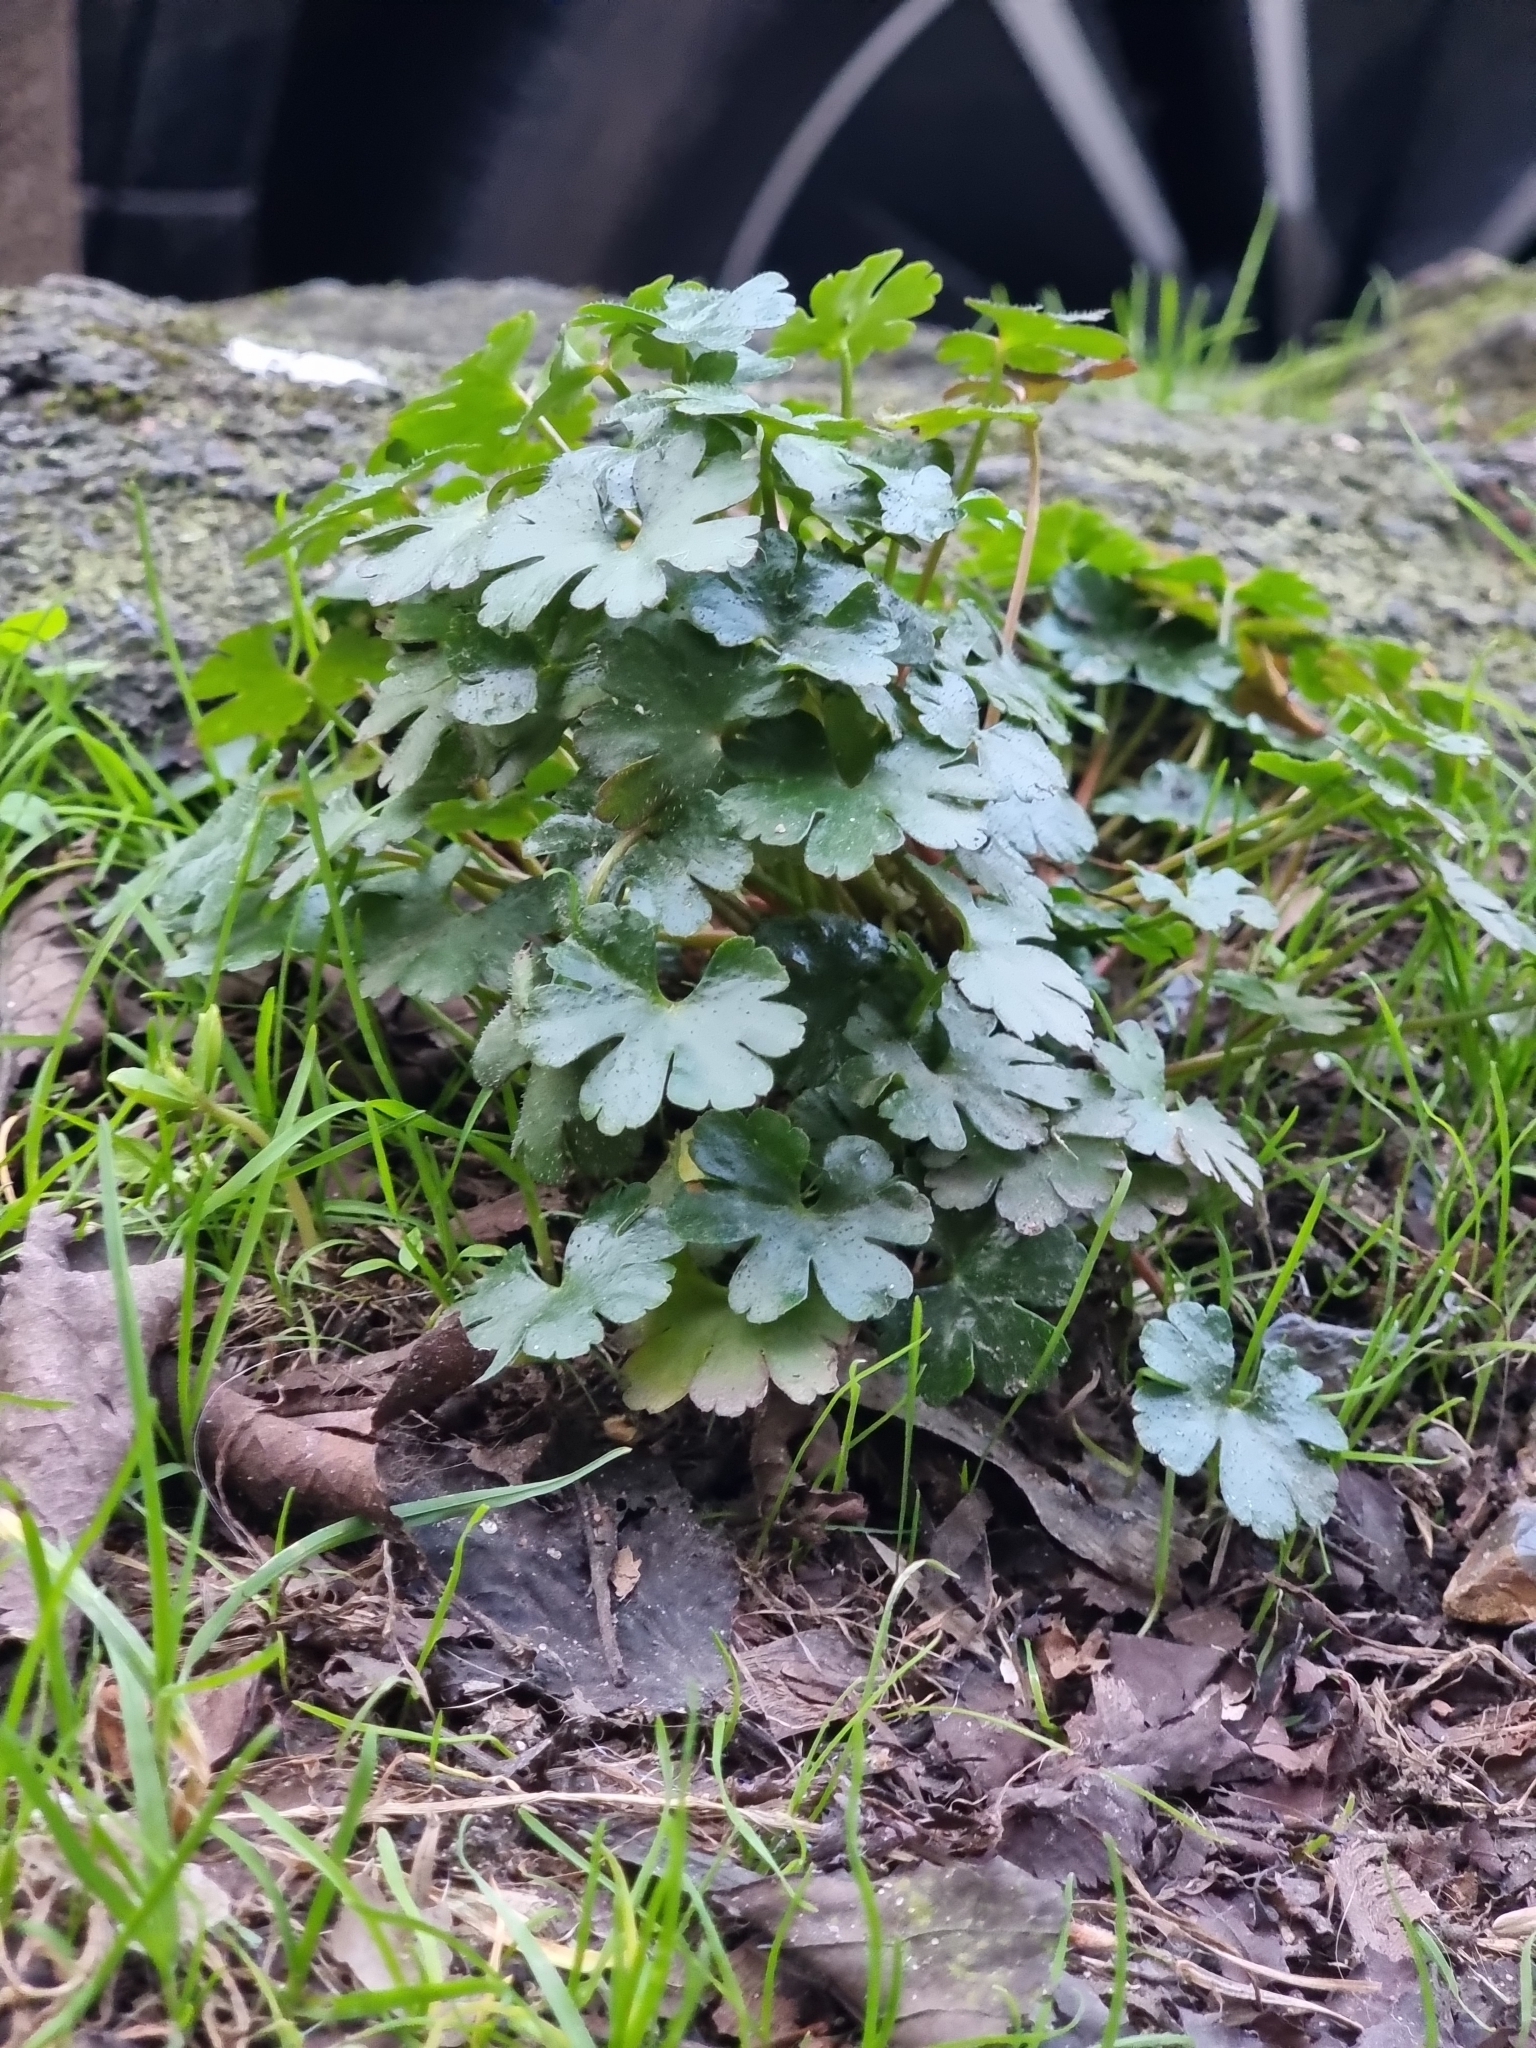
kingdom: Plantae
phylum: Tracheophyta
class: Magnoliopsida
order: Geraniales
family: Geraniaceae
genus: Geranium
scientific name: Geranium lucidum
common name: Shining crane's-bill
